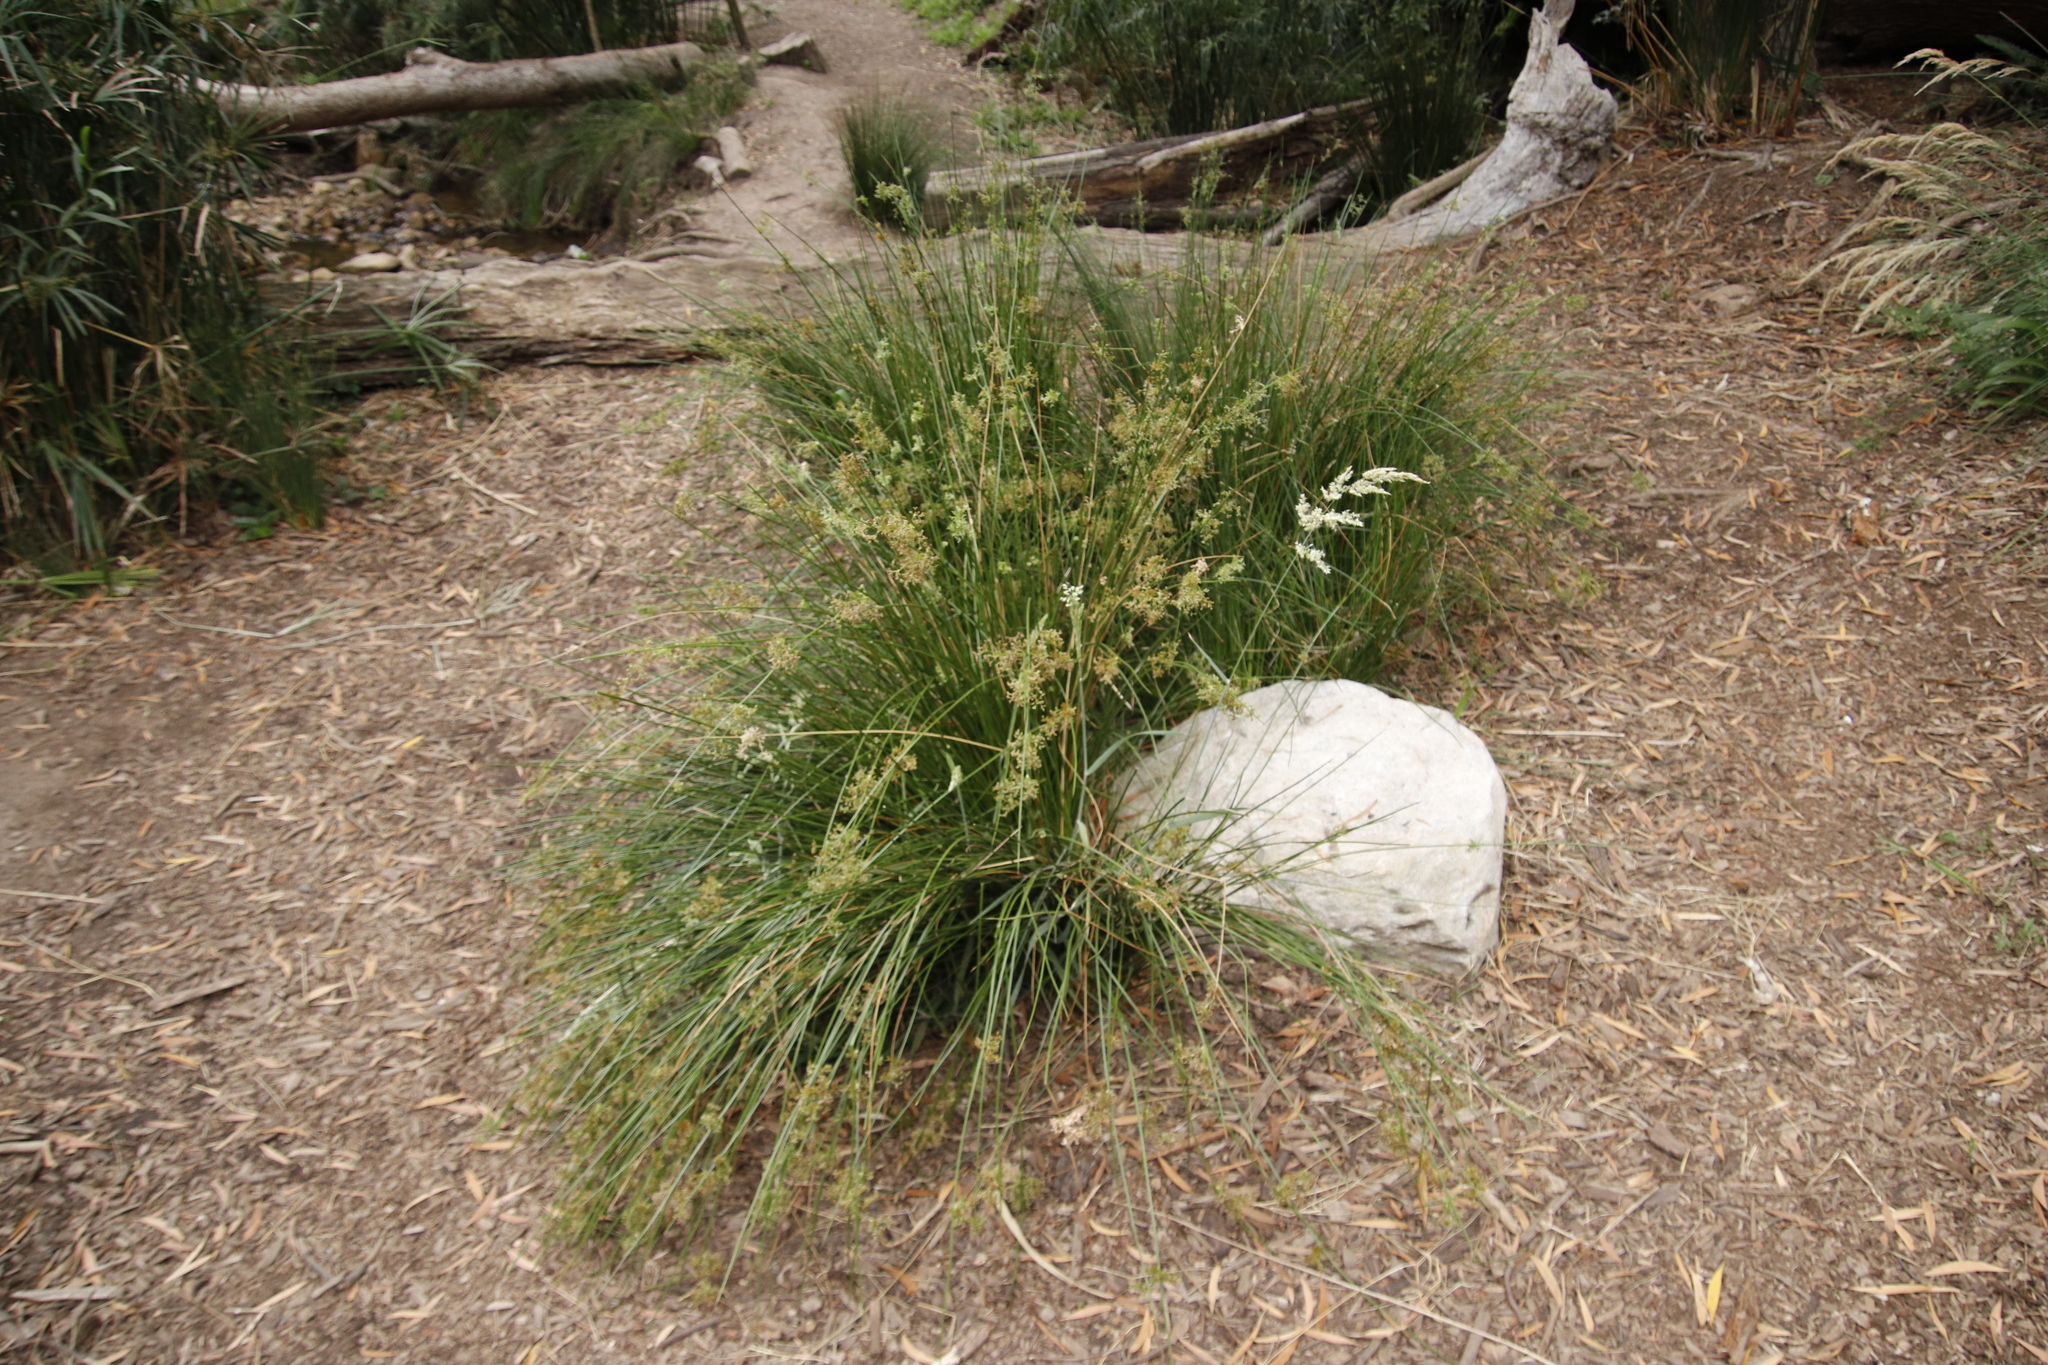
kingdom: Plantae
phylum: Tracheophyta
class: Liliopsida
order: Poales
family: Juncaceae
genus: Juncus
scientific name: Juncus effusus
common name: Soft rush
